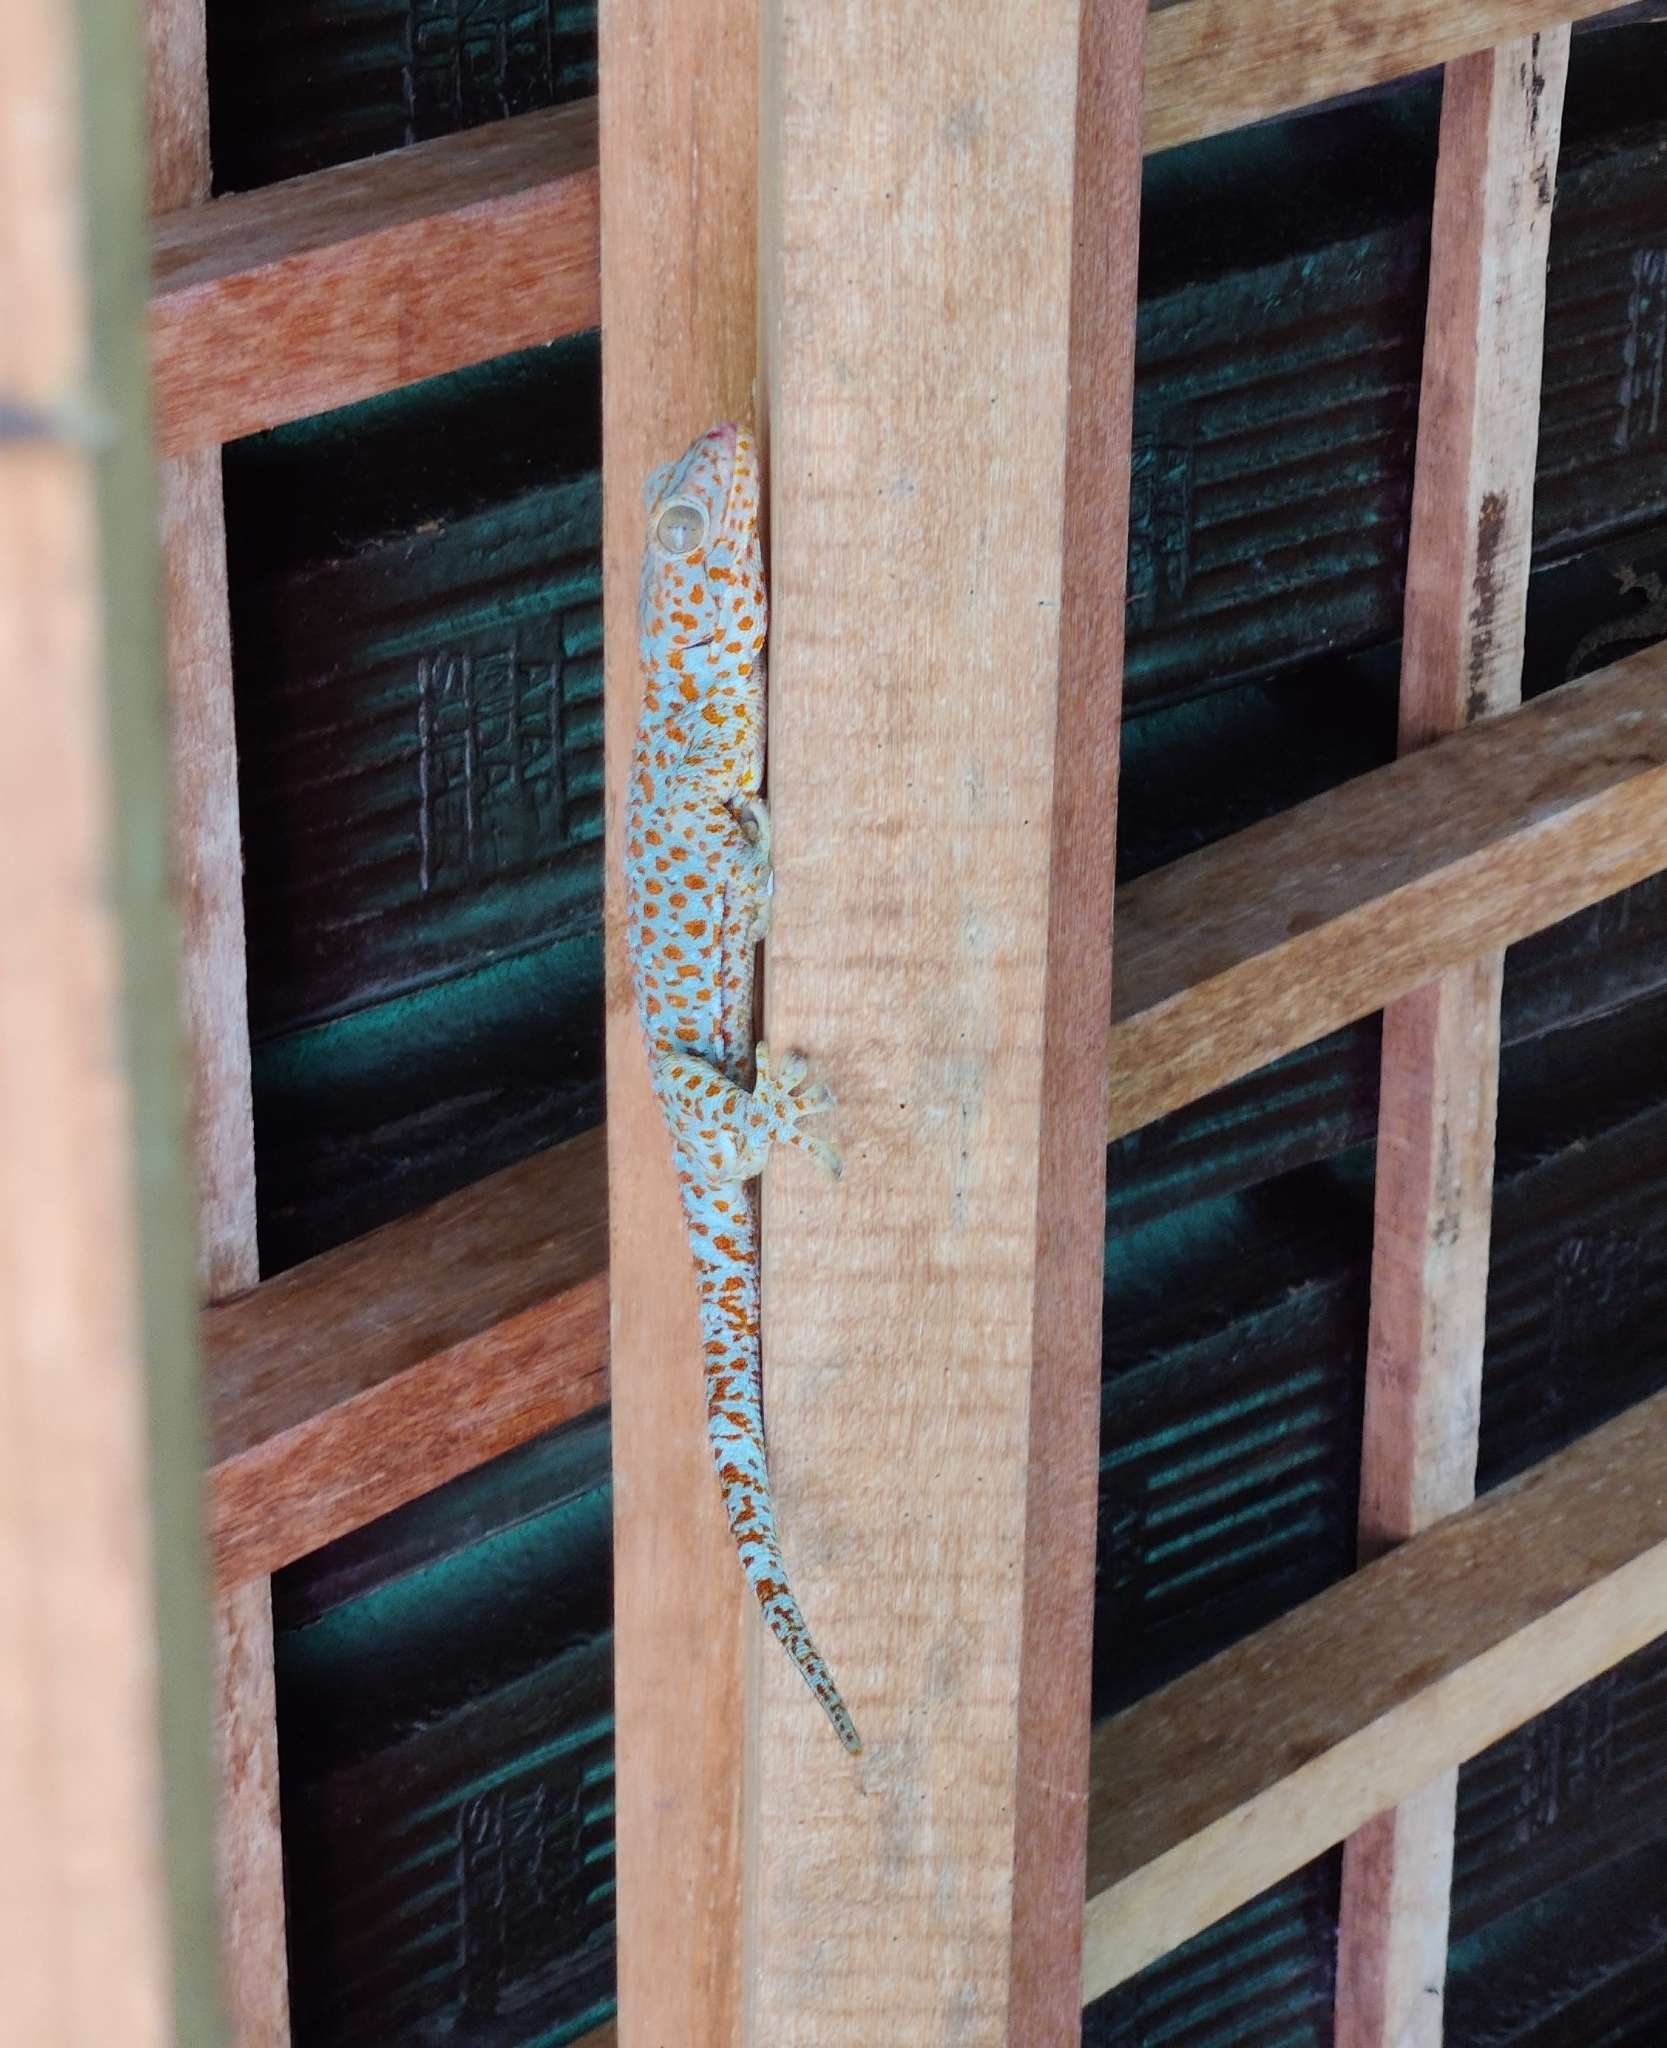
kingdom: Animalia
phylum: Chordata
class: Squamata
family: Gekkonidae
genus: Gekko
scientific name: Gekko gecko
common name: Tokay gecko
